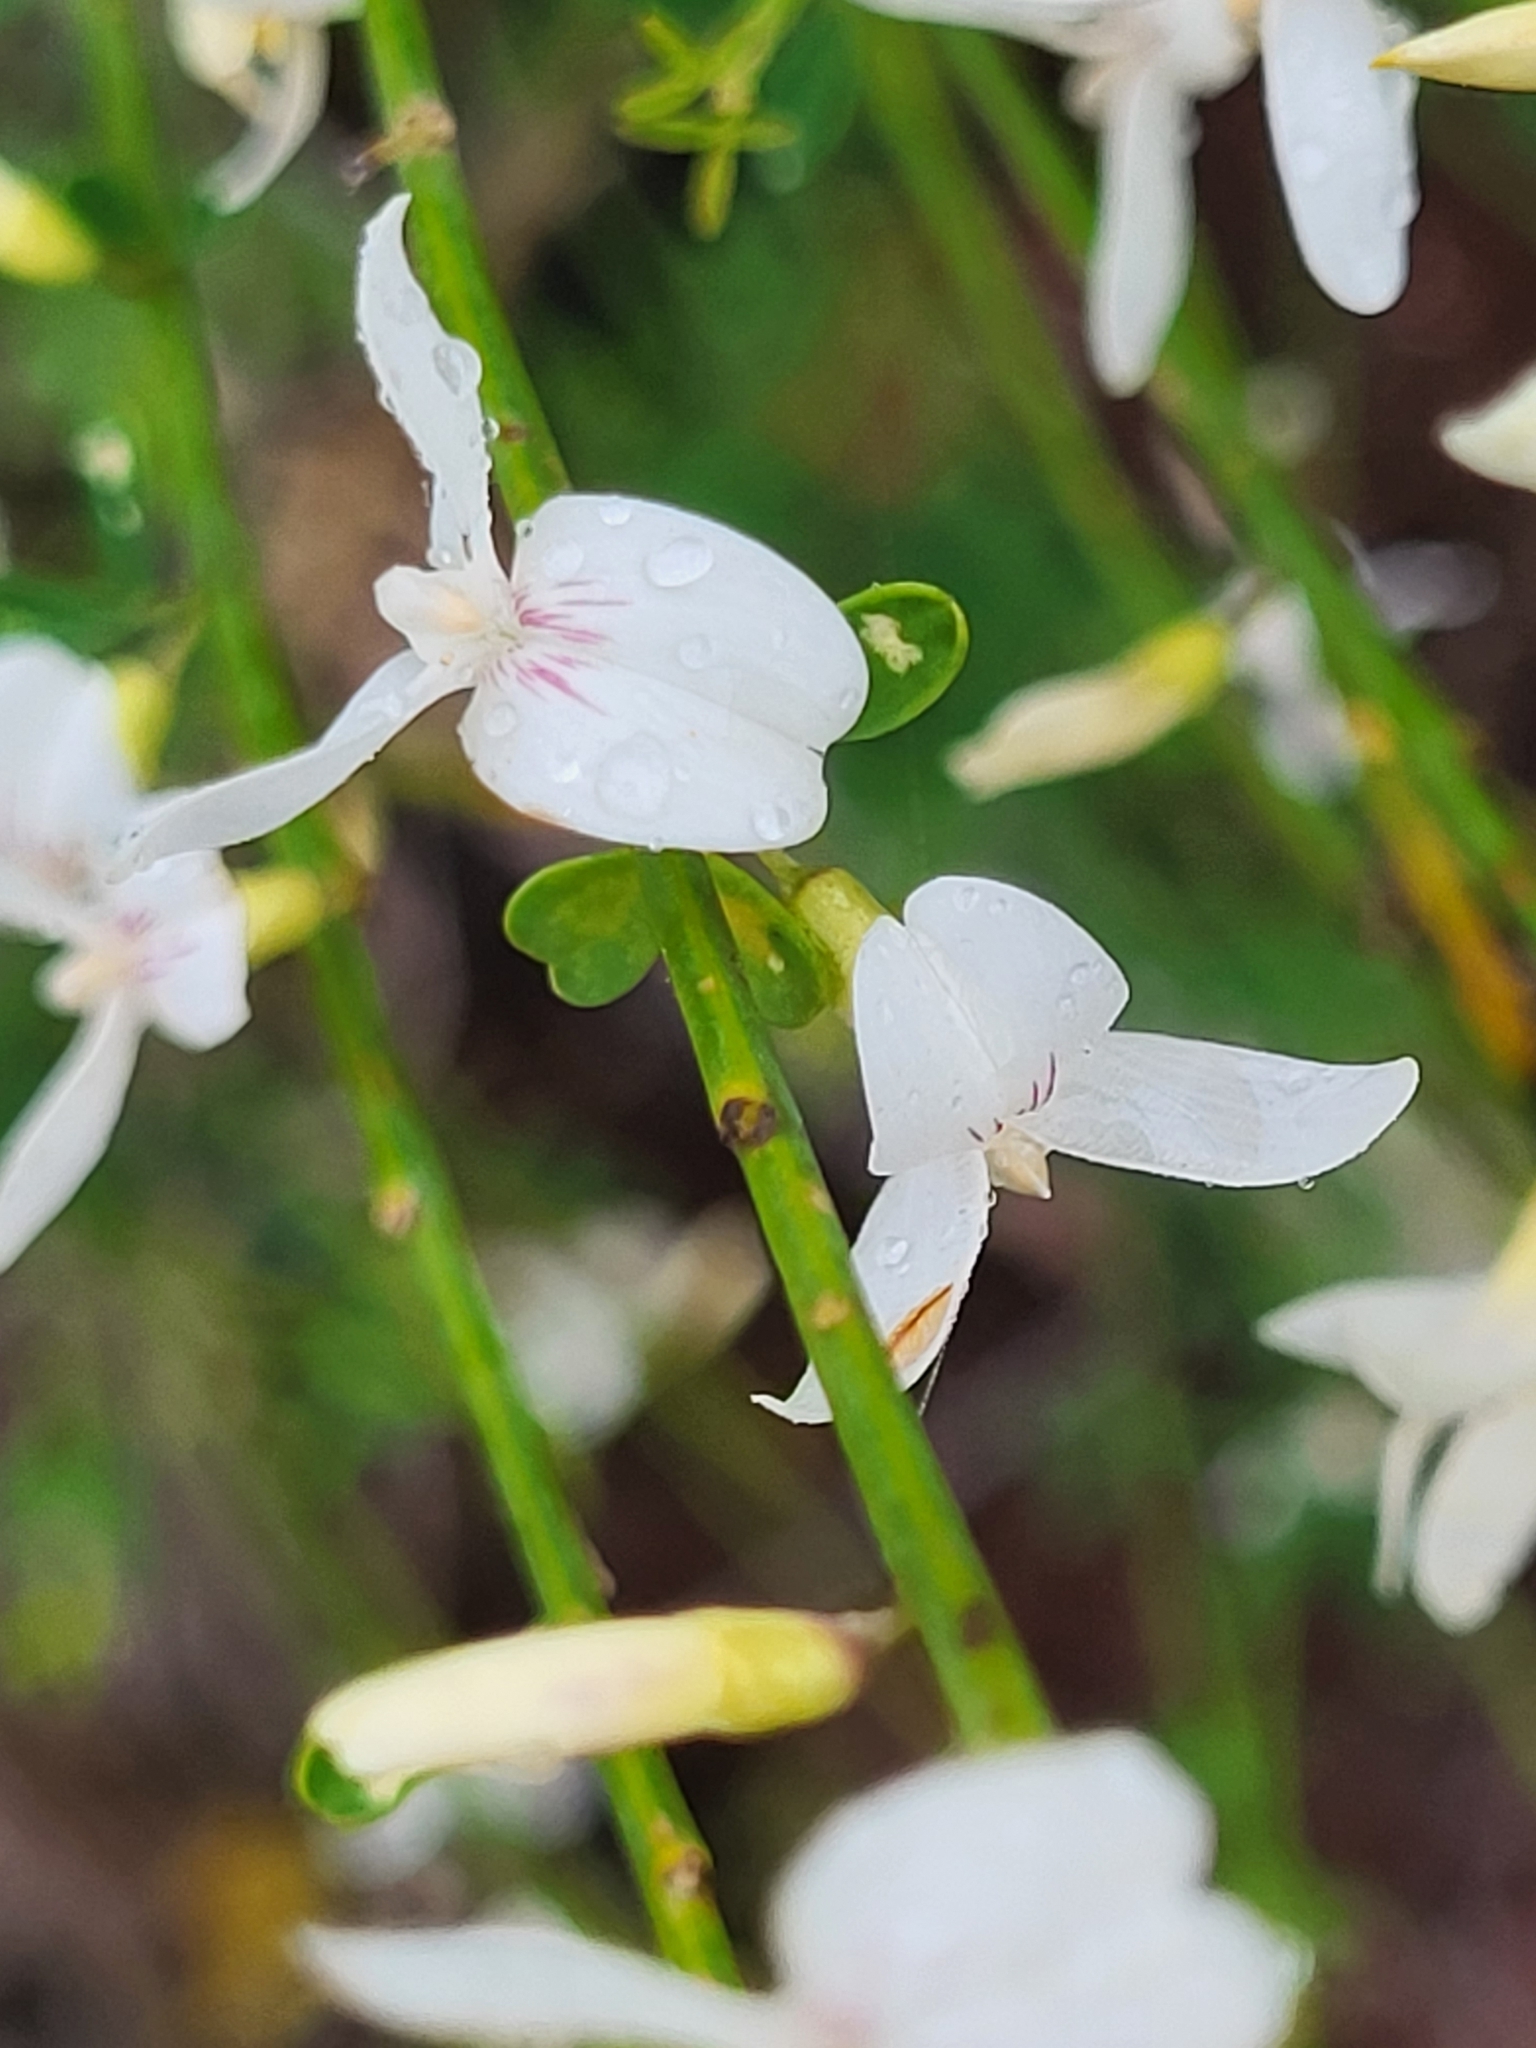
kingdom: Plantae
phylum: Tracheophyta
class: Magnoliopsida
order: Fabales
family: Fabaceae
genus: Cytisus
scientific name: Cytisus filipes
